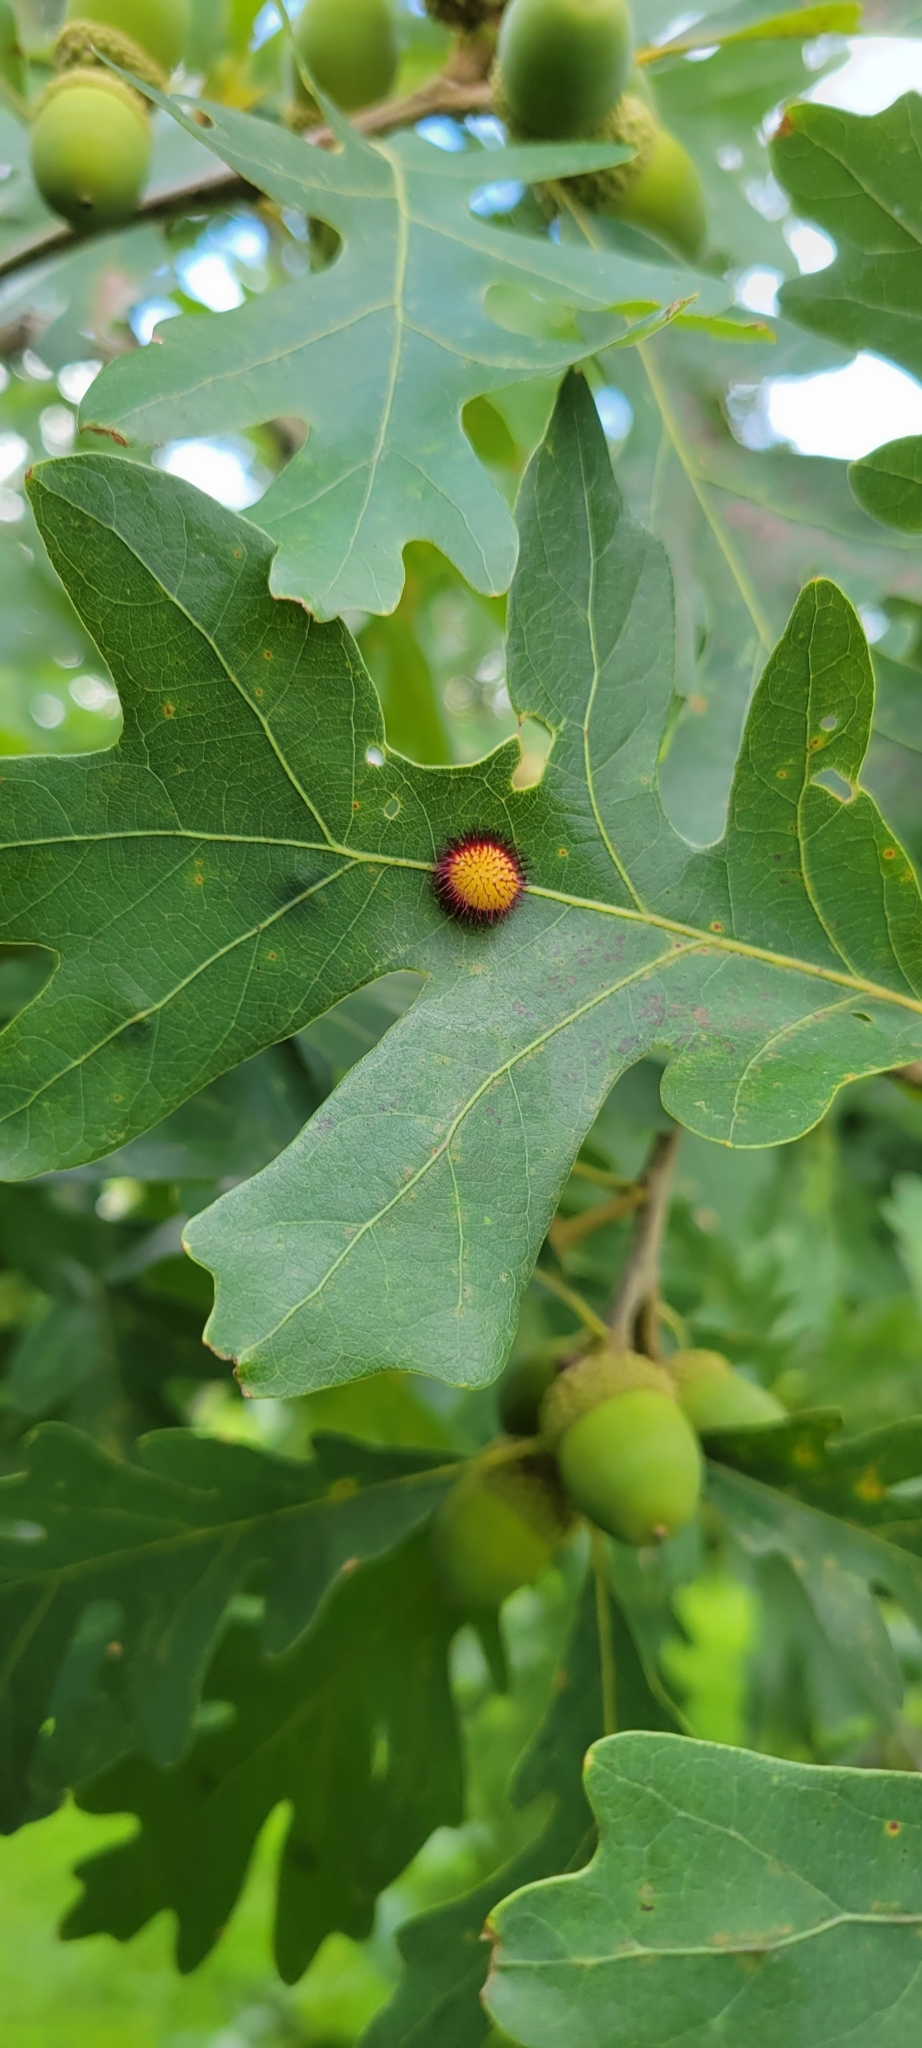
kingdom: Animalia
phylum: Arthropoda
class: Insecta
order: Hymenoptera
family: Cynipidae
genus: Acraspis
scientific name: Acraspis erinacei
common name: Hedgehog gall wasp
